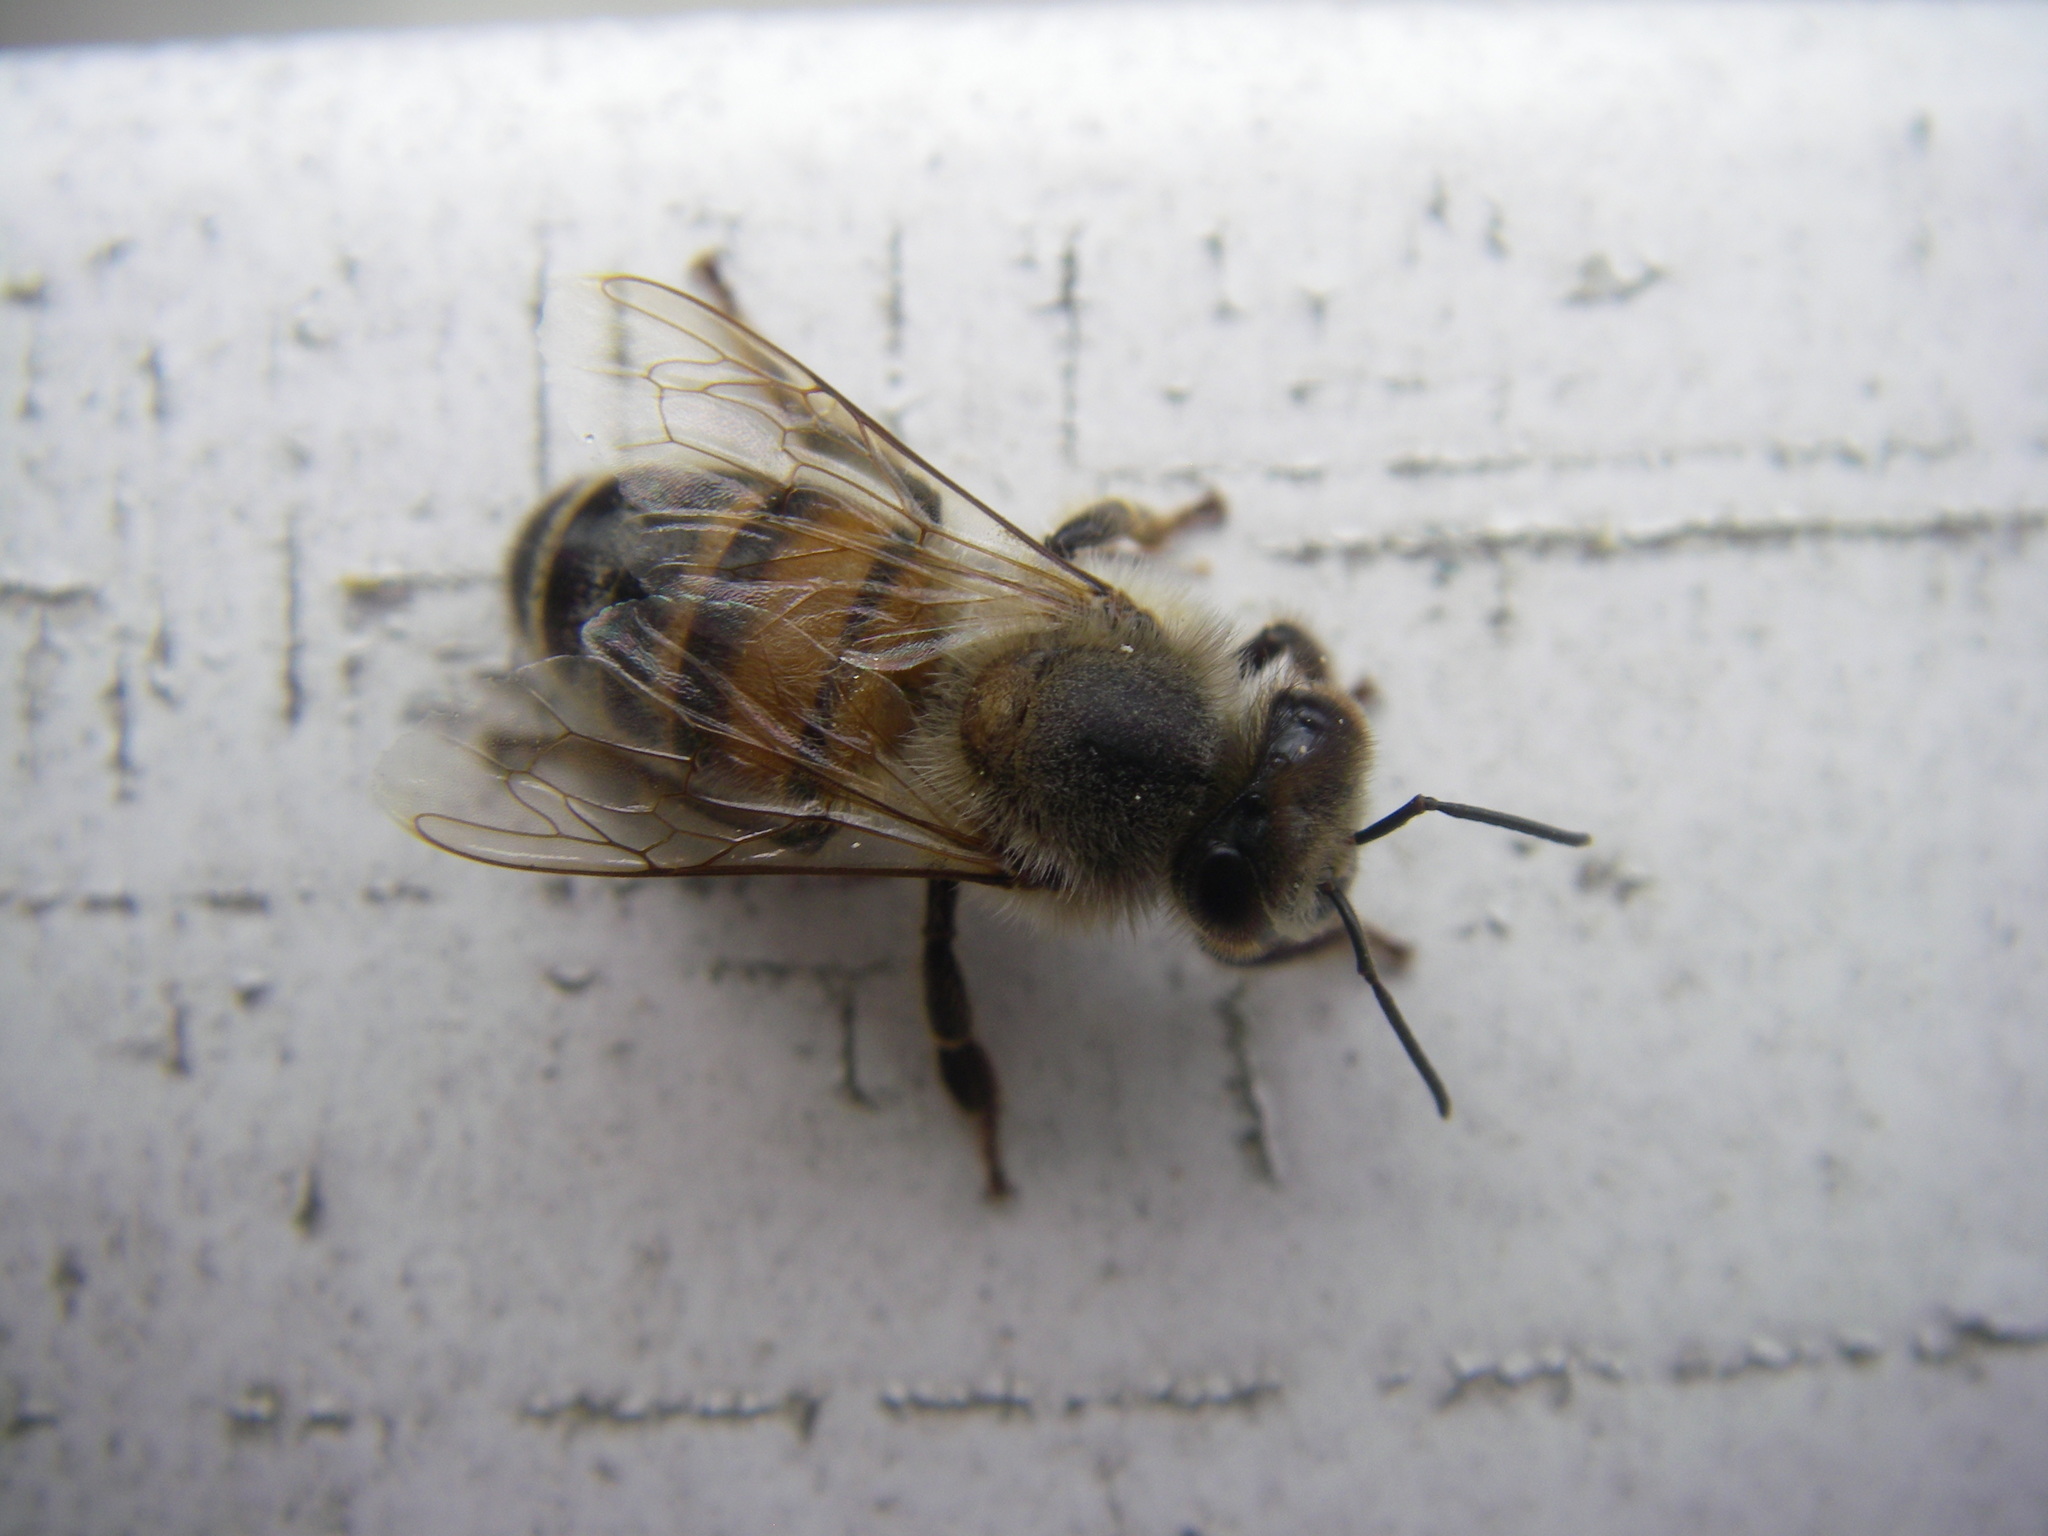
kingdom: Animalia
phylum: Arthropoda
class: Insecta
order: Hymenoptera
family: Apidae
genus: Apis
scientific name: Apis mellifera
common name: Honey bee
